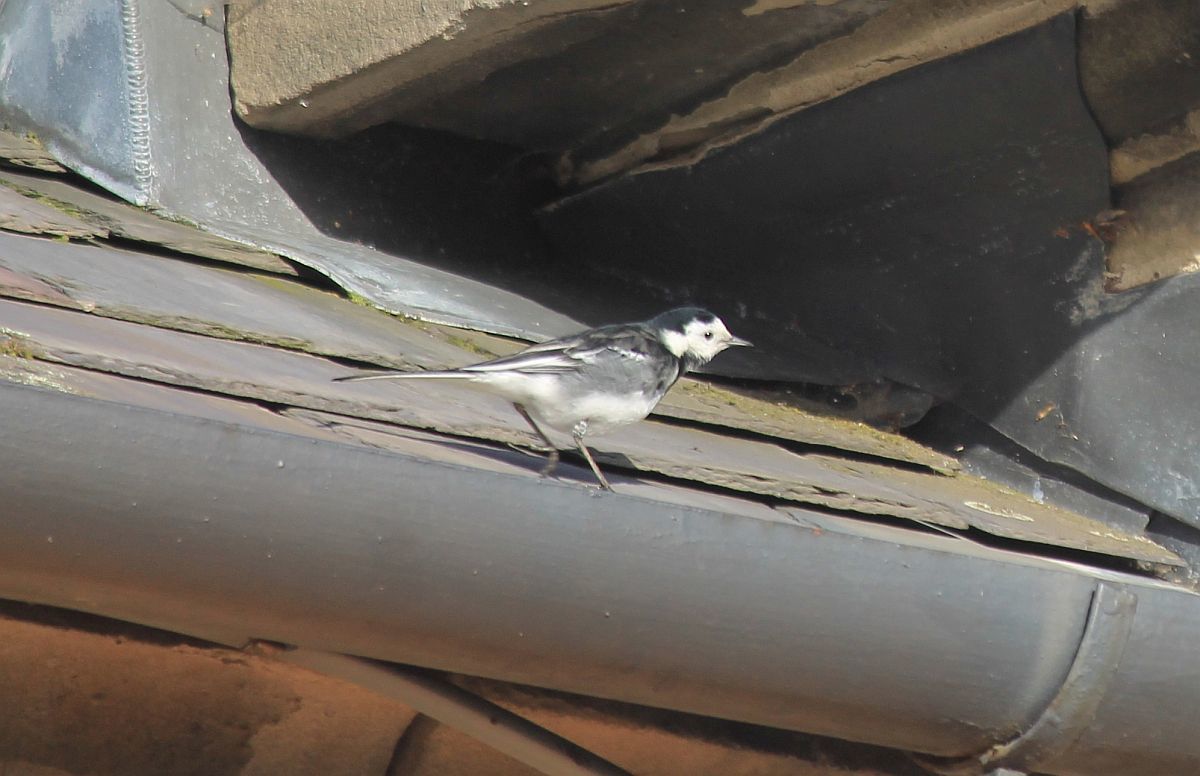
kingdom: Animalia
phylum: Chordata
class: Aves
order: Passeriformes
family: Motacillidae
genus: Motacilla
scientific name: Motacilla alba
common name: White wagtail
